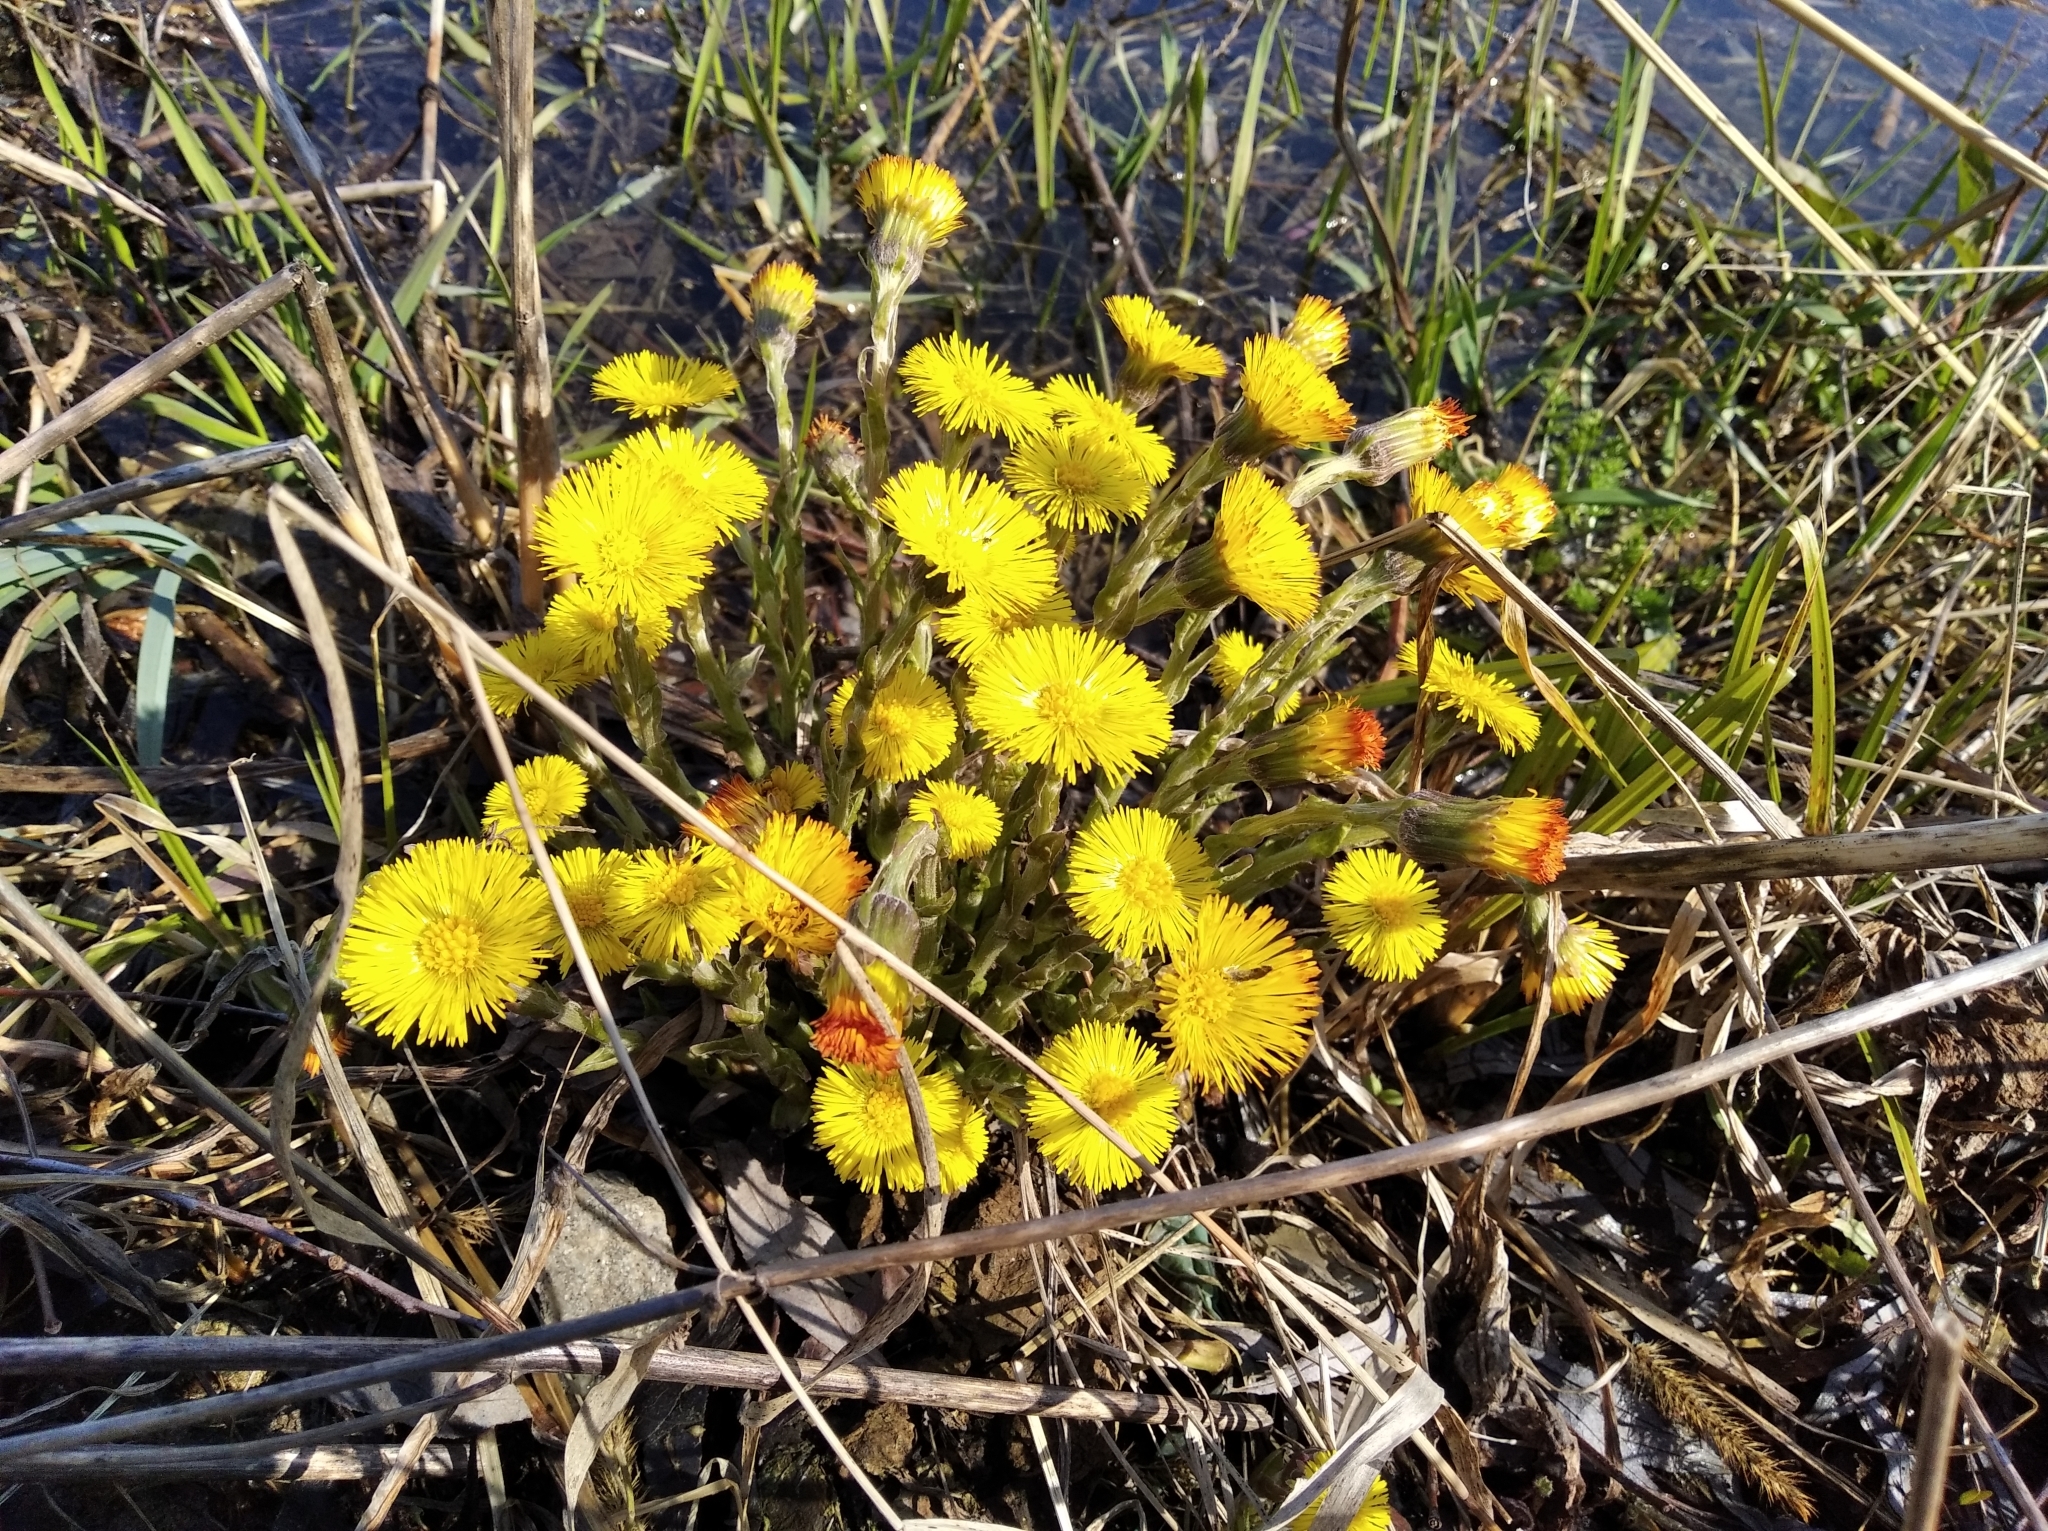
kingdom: Plantae
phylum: Tracheophyta
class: Magnoliopsida
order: Asterales
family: Asteraceae
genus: Tussilago
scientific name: Tussilago farfara
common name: Coltsfoot
